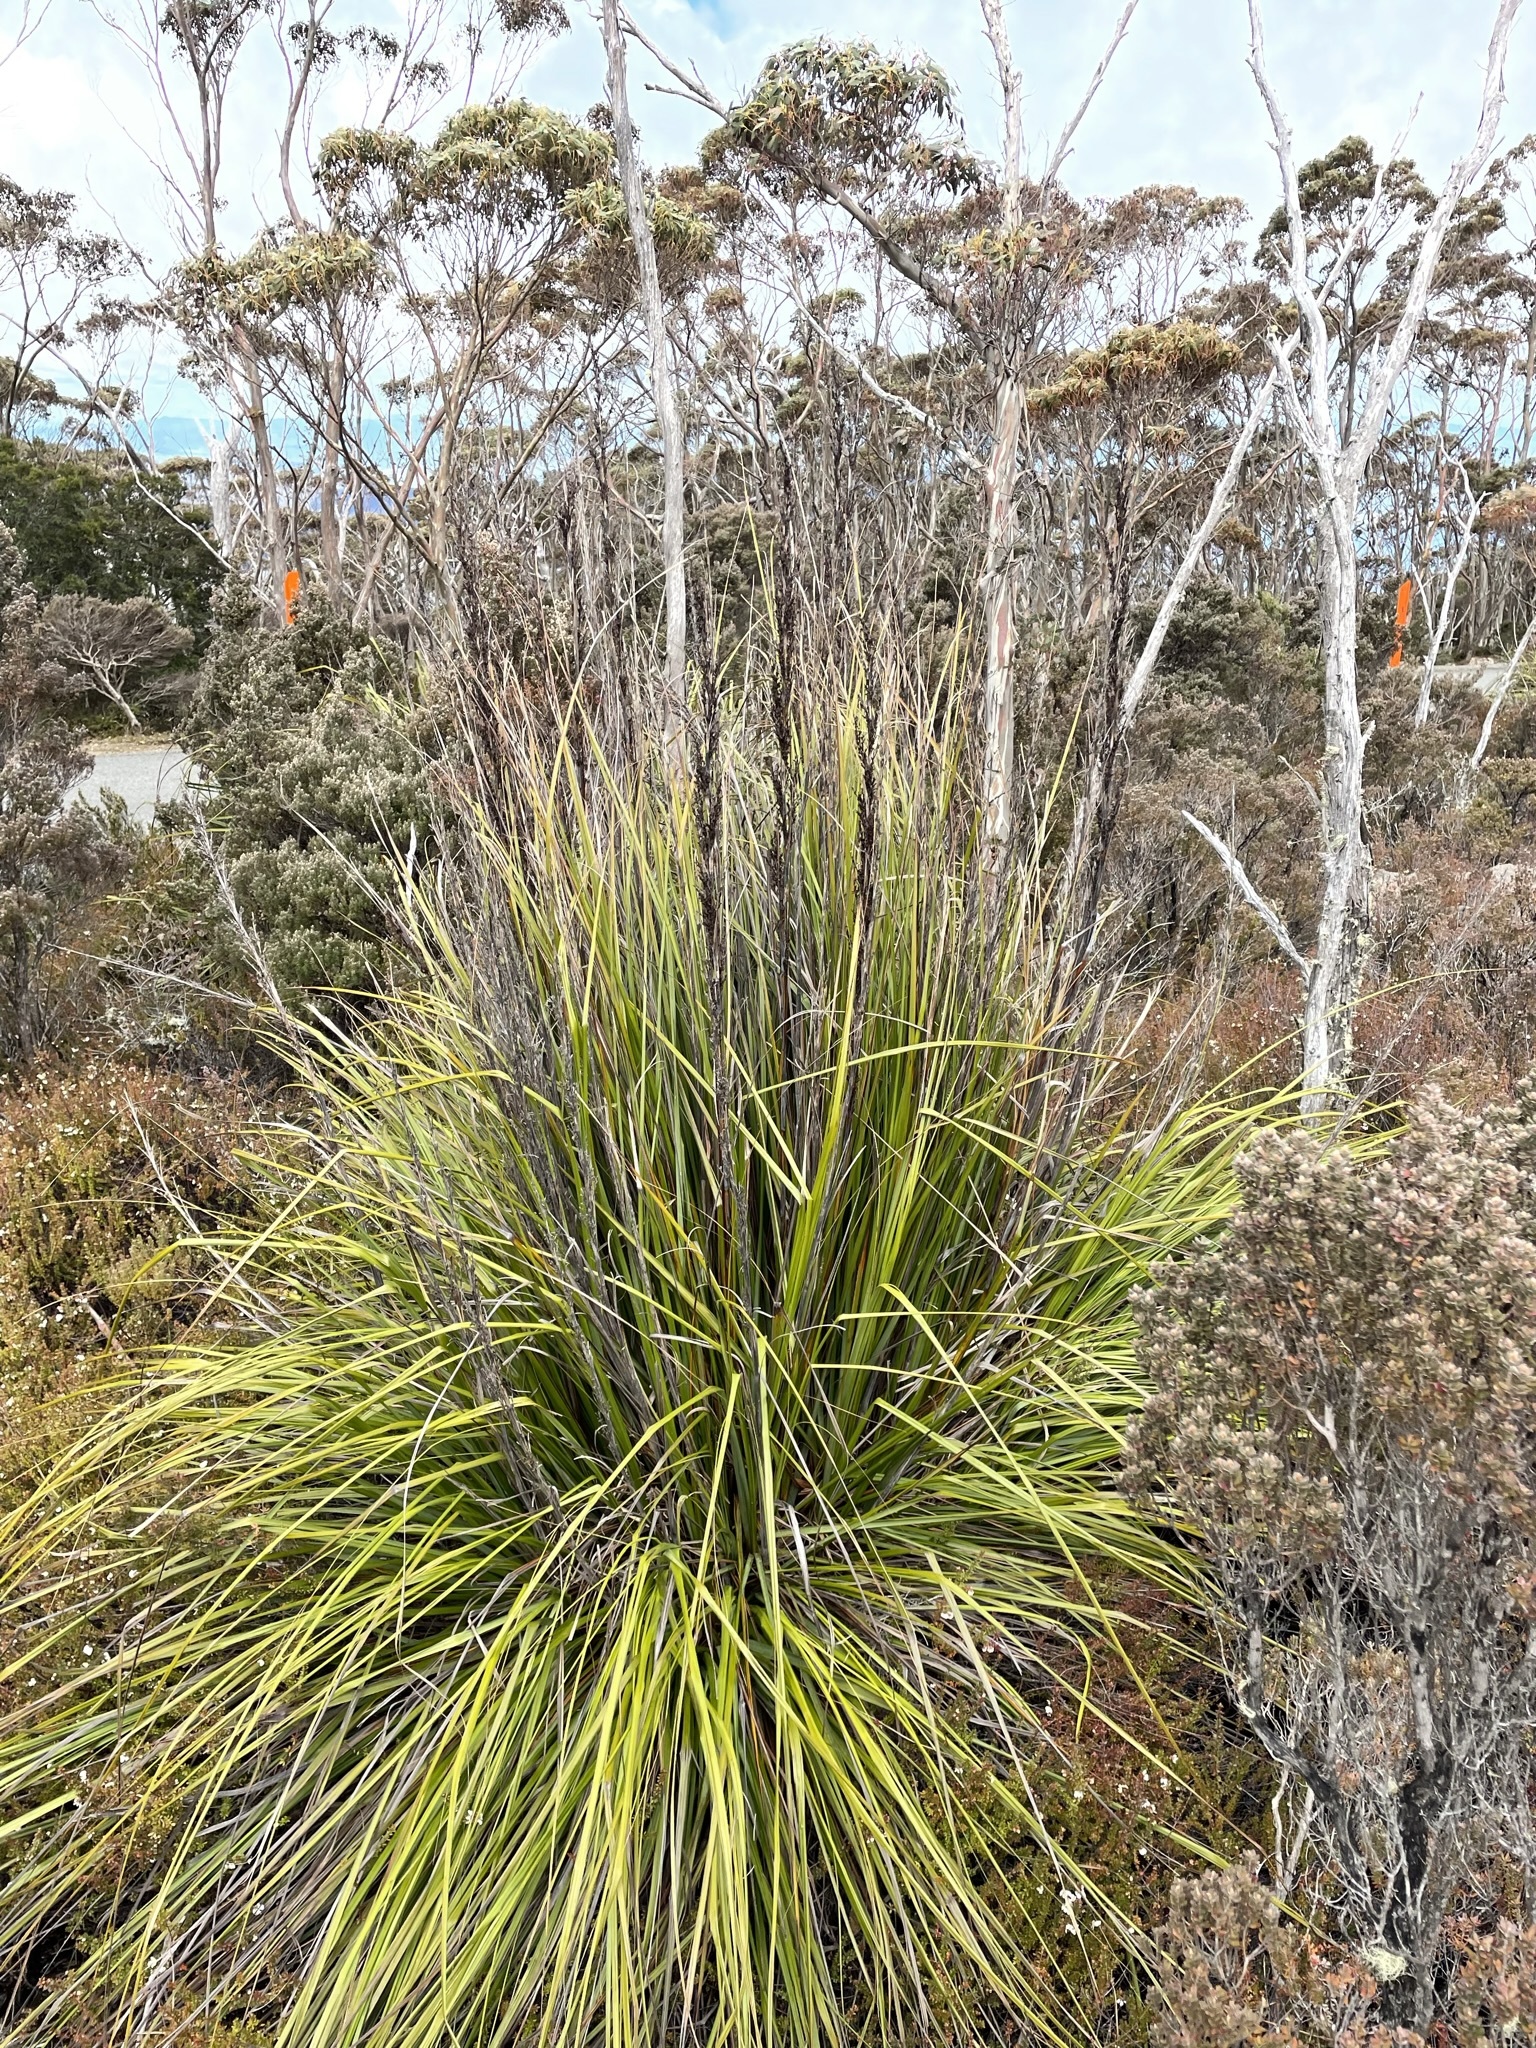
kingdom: Plantae
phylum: Tracheophyta
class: Liliopsida
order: Poales
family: Cyperaceae
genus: Gahnia
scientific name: Gahnia grandis
